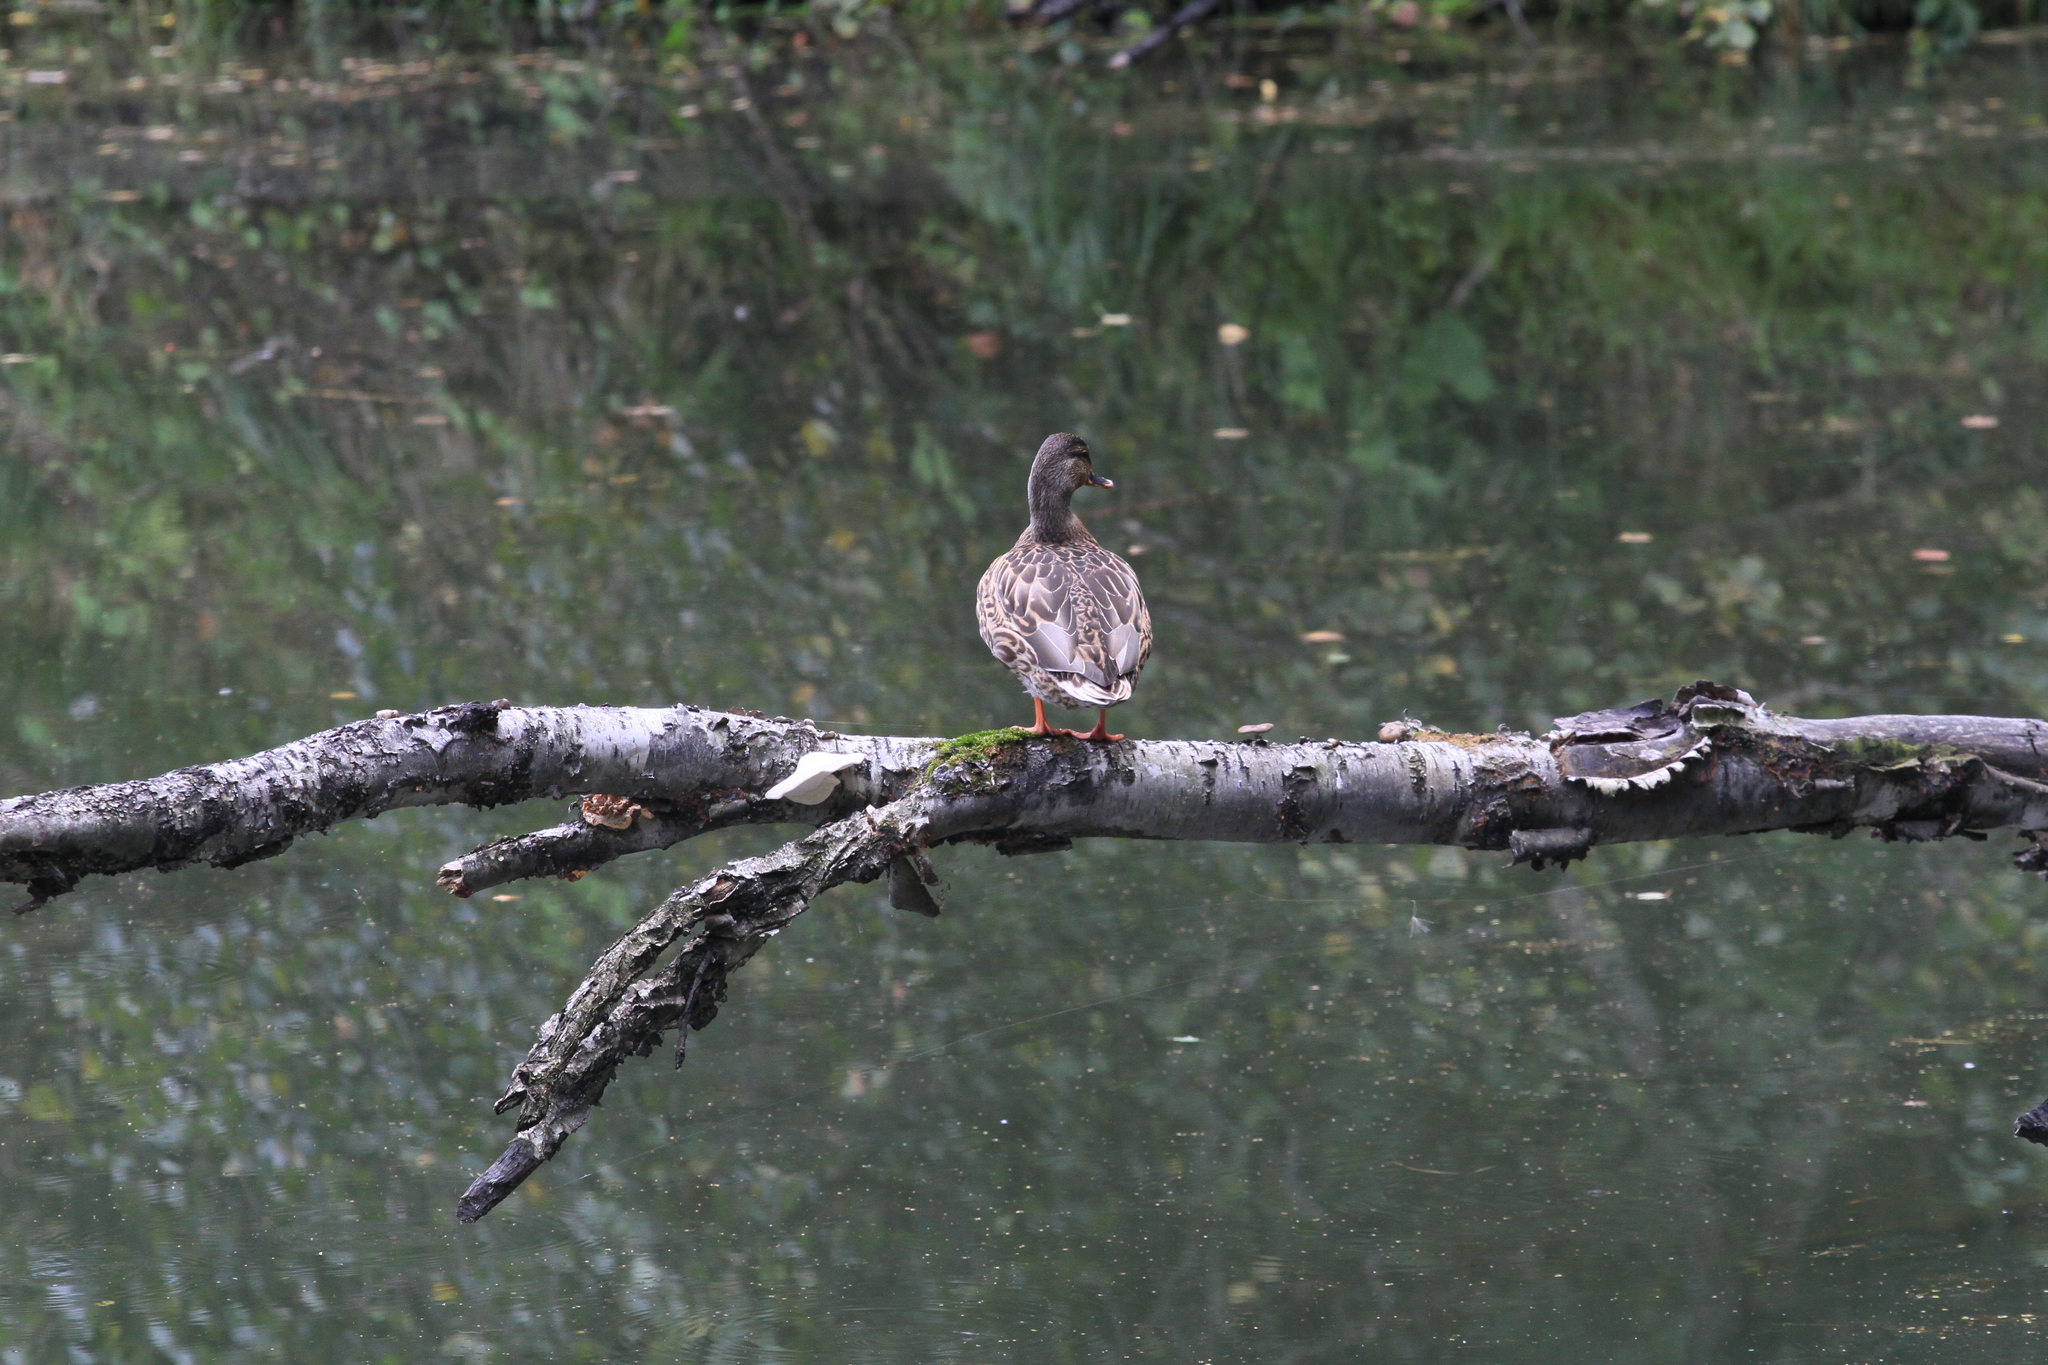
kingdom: Animalia
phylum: Chordata
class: Aves
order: Anseriformes
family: Anatidae
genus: Anas
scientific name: Anas platyrhynchos
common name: Mallard
